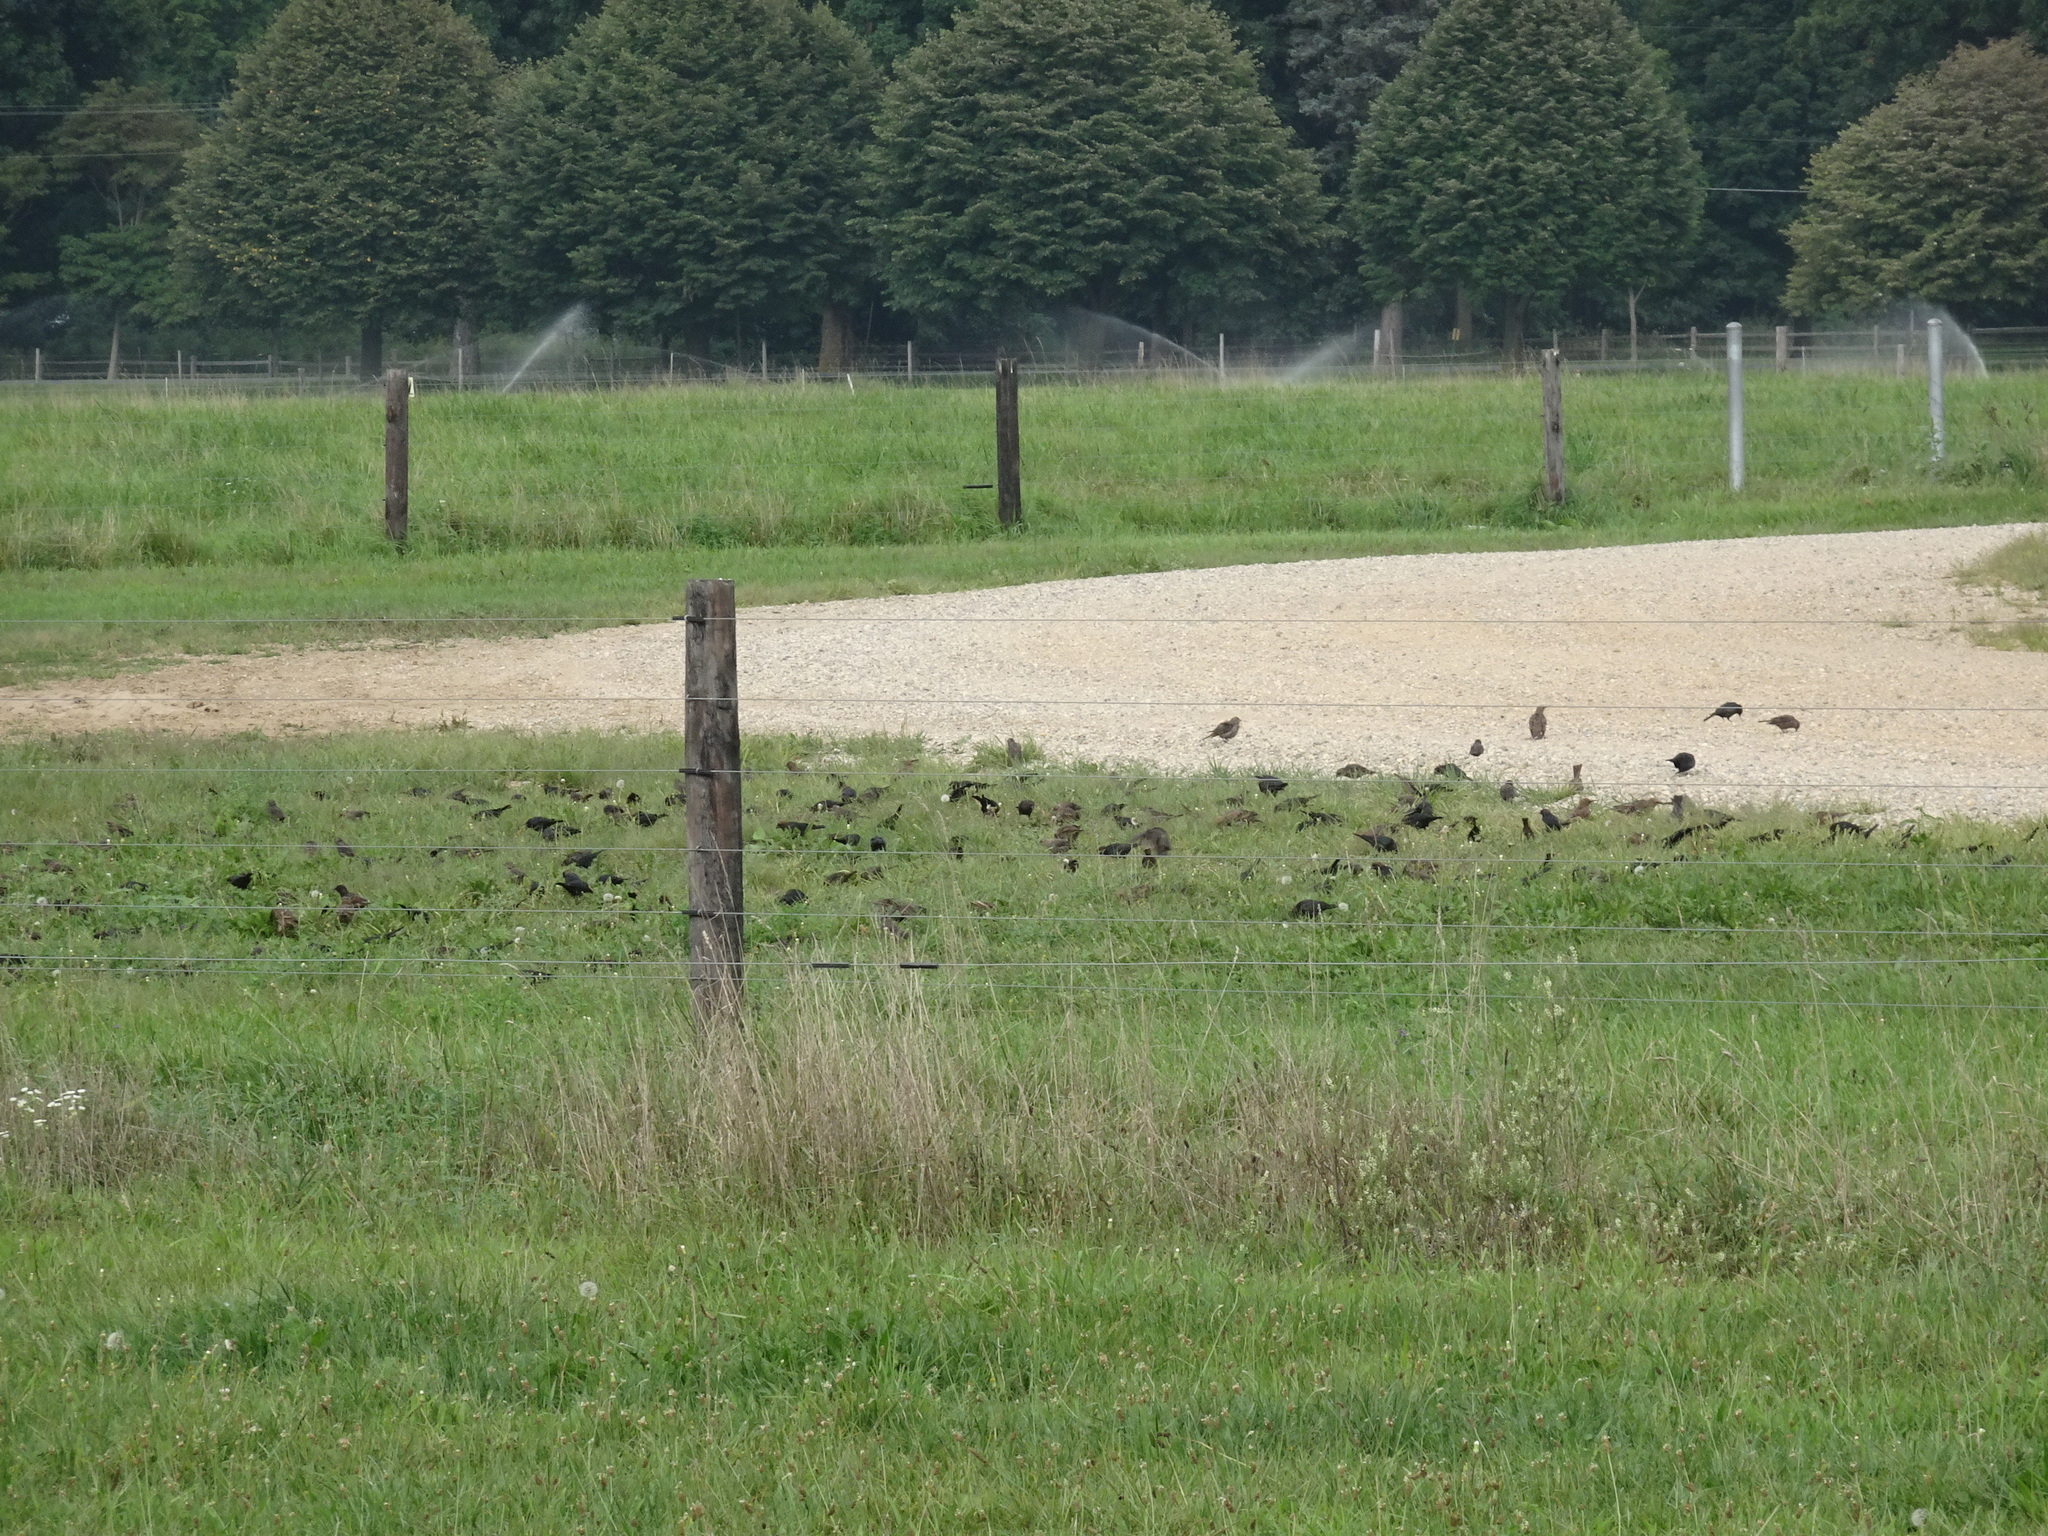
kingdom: Animalia
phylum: Chordata
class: Aves
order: Passeriformes
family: Icteridae
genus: Molothrus
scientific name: Molothrus ater
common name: Brown-headed cowbird
